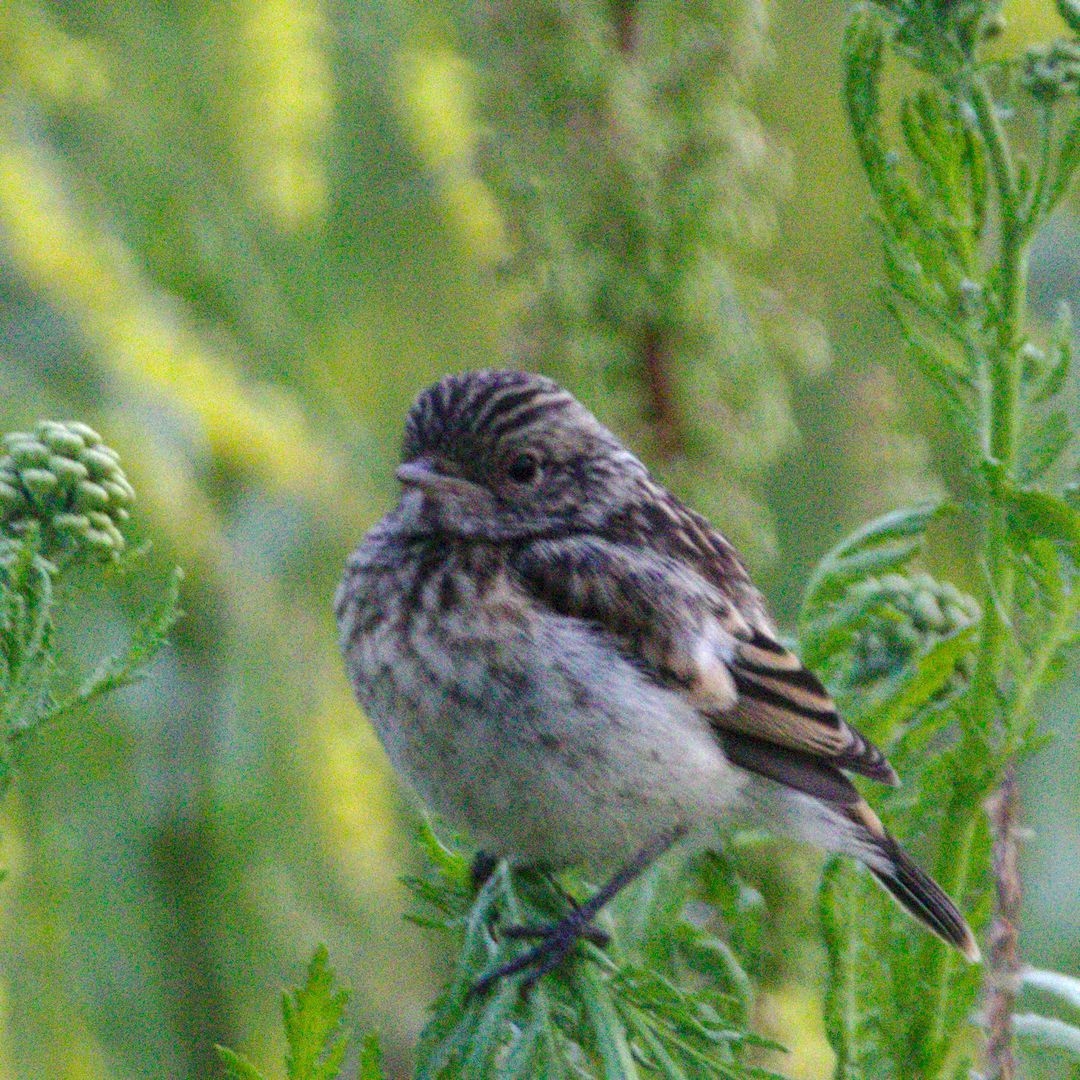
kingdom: Animalia
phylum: Chordata
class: Aves
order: Passeriformes
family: Muscicapidae
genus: Saxicola
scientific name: Saxicola maurus
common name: Siberian stonechat
